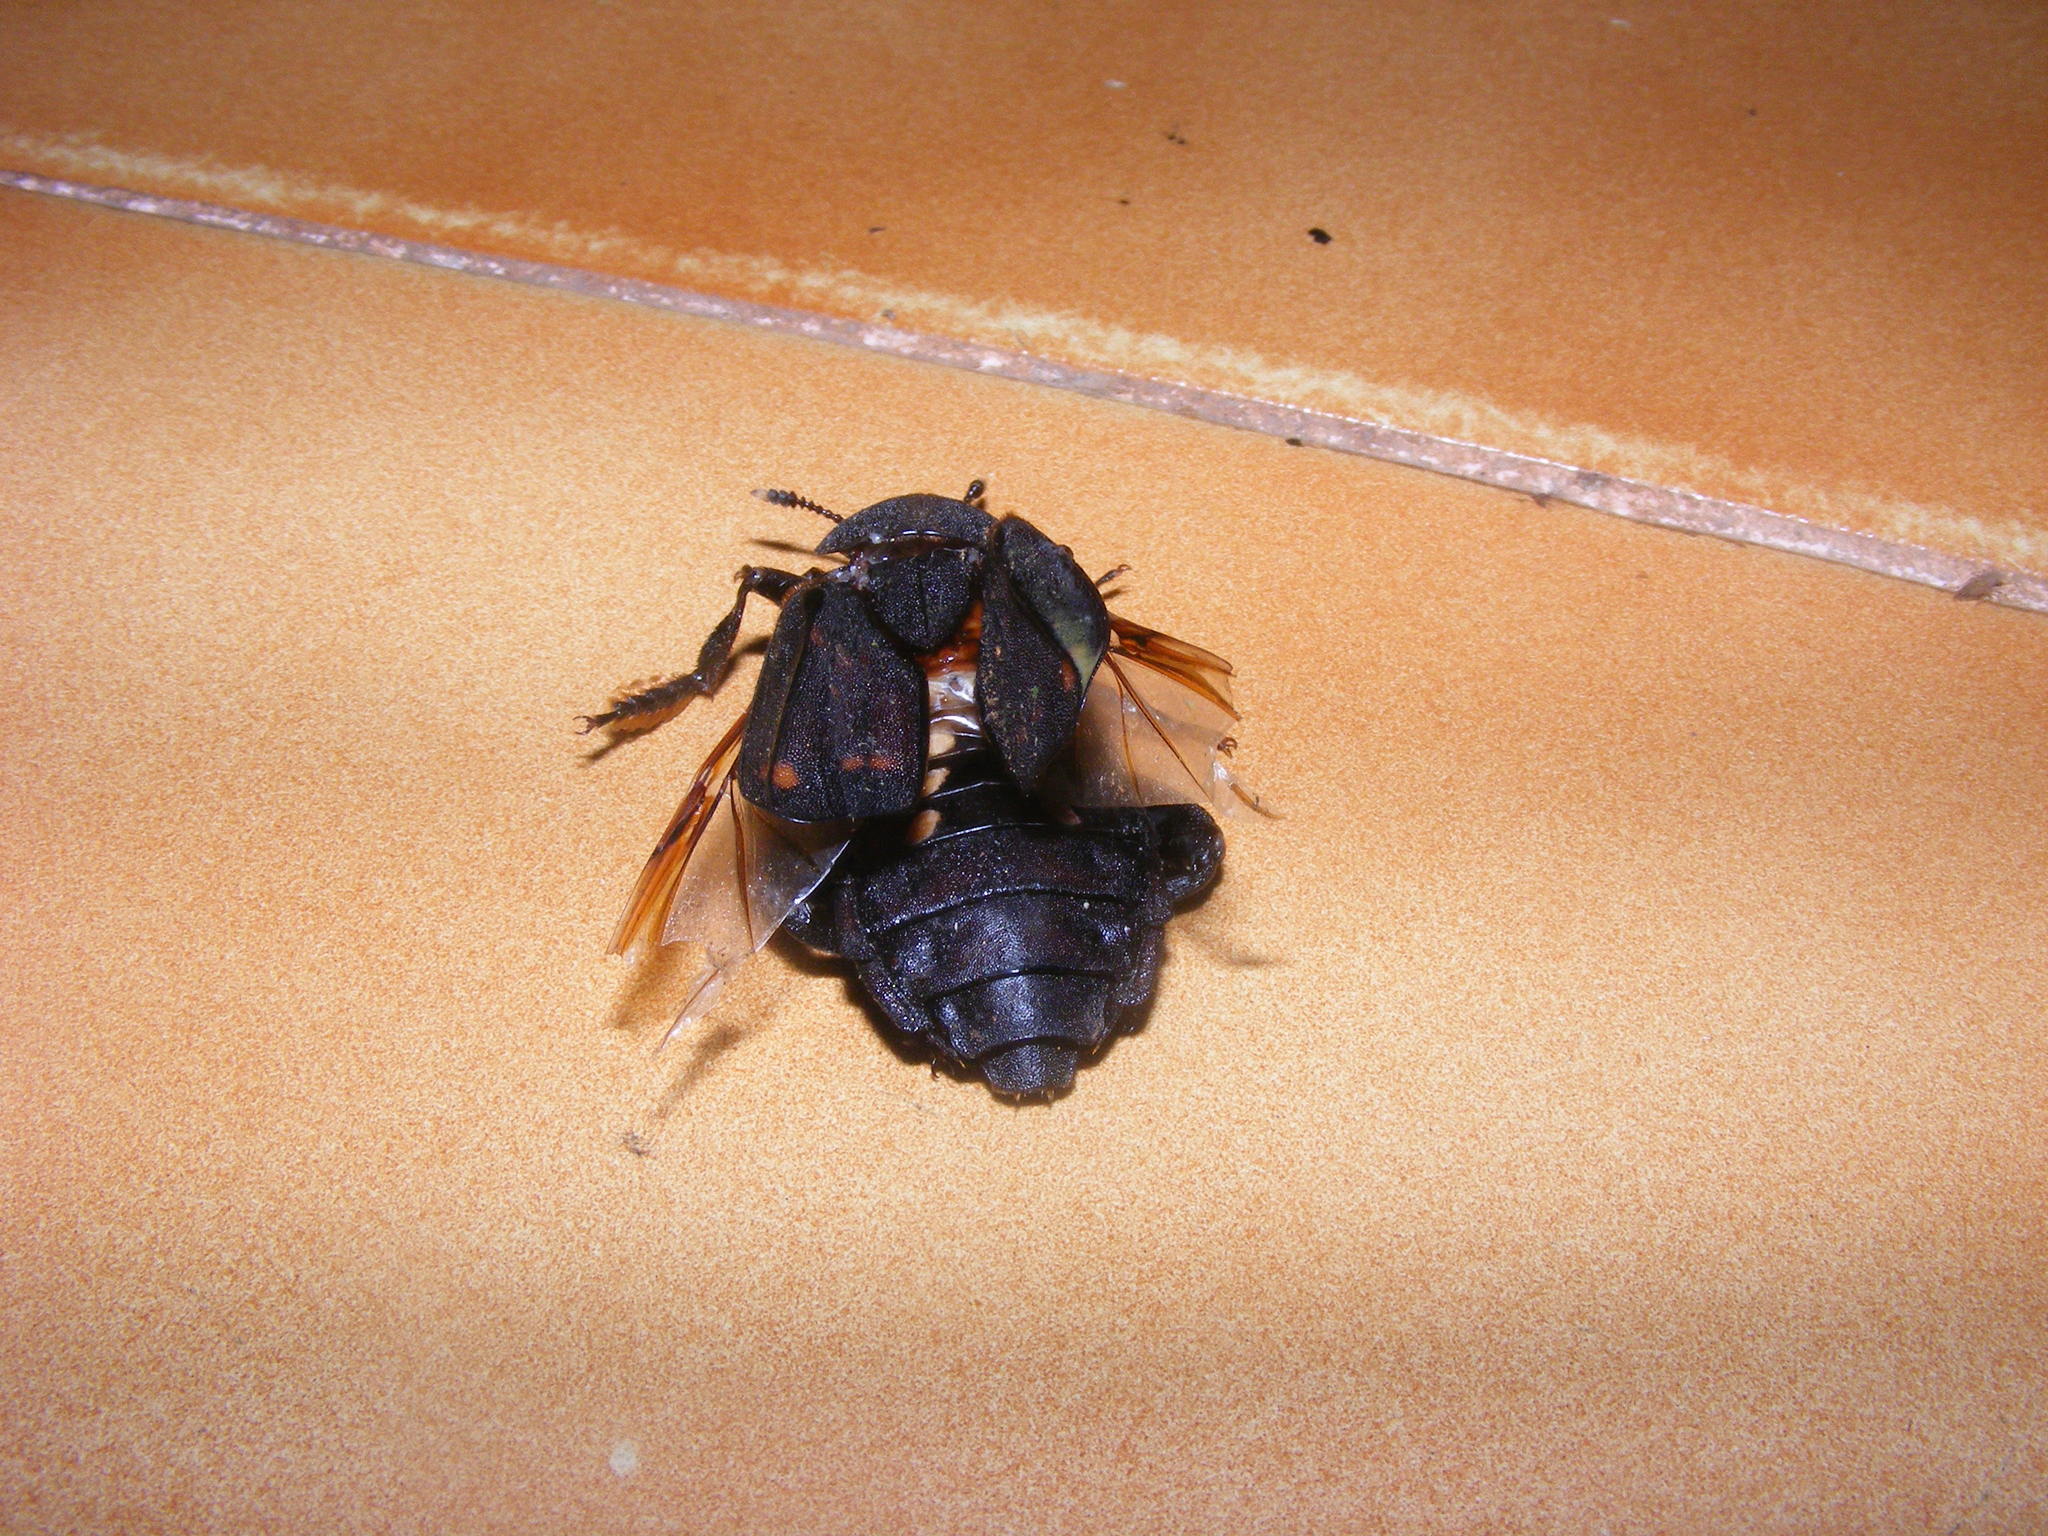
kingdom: Animalia
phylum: Arthropoda
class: Insecta
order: Coleoptera
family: Staphylinidae
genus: Diamesus
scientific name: Diamesus osculans
